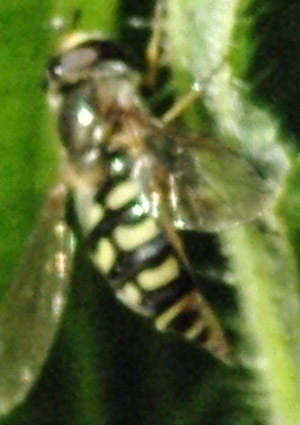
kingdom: Animalia
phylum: Arthropoda
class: Insecta
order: Diptera
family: Syrphidae
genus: Eupeodes
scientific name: Eupeodes
